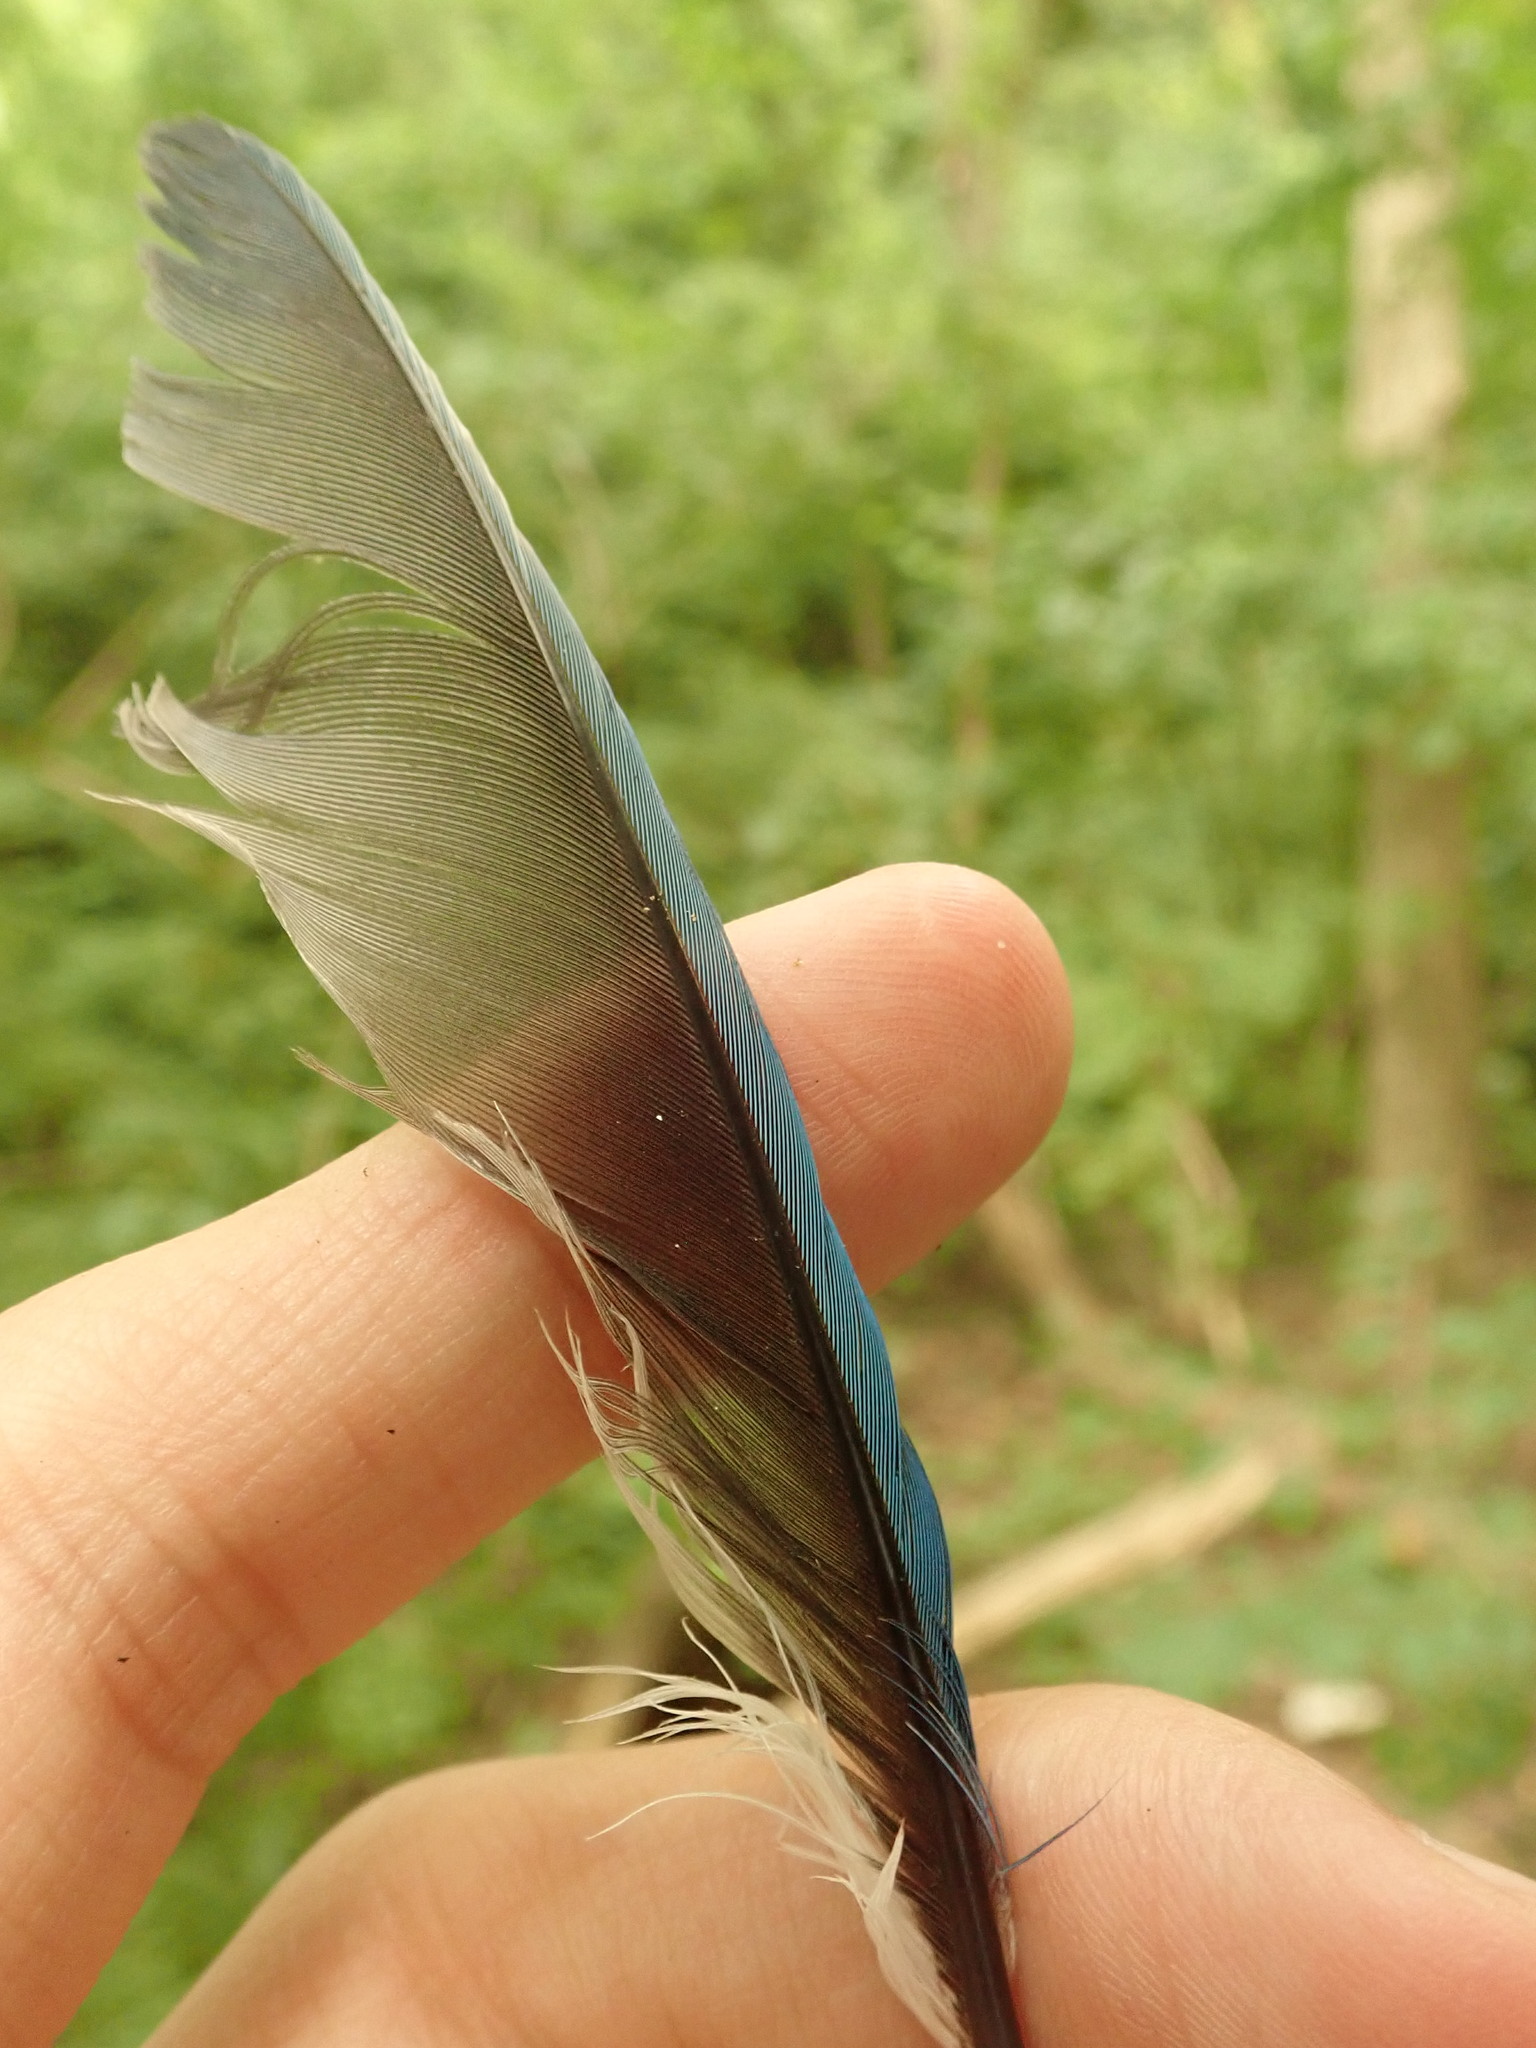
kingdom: Animalia
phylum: Chordata
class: Aves
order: Passeriformes
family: Corvidae
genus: Cyanocitta
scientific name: Cyanocitta cristata
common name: Blue jay
